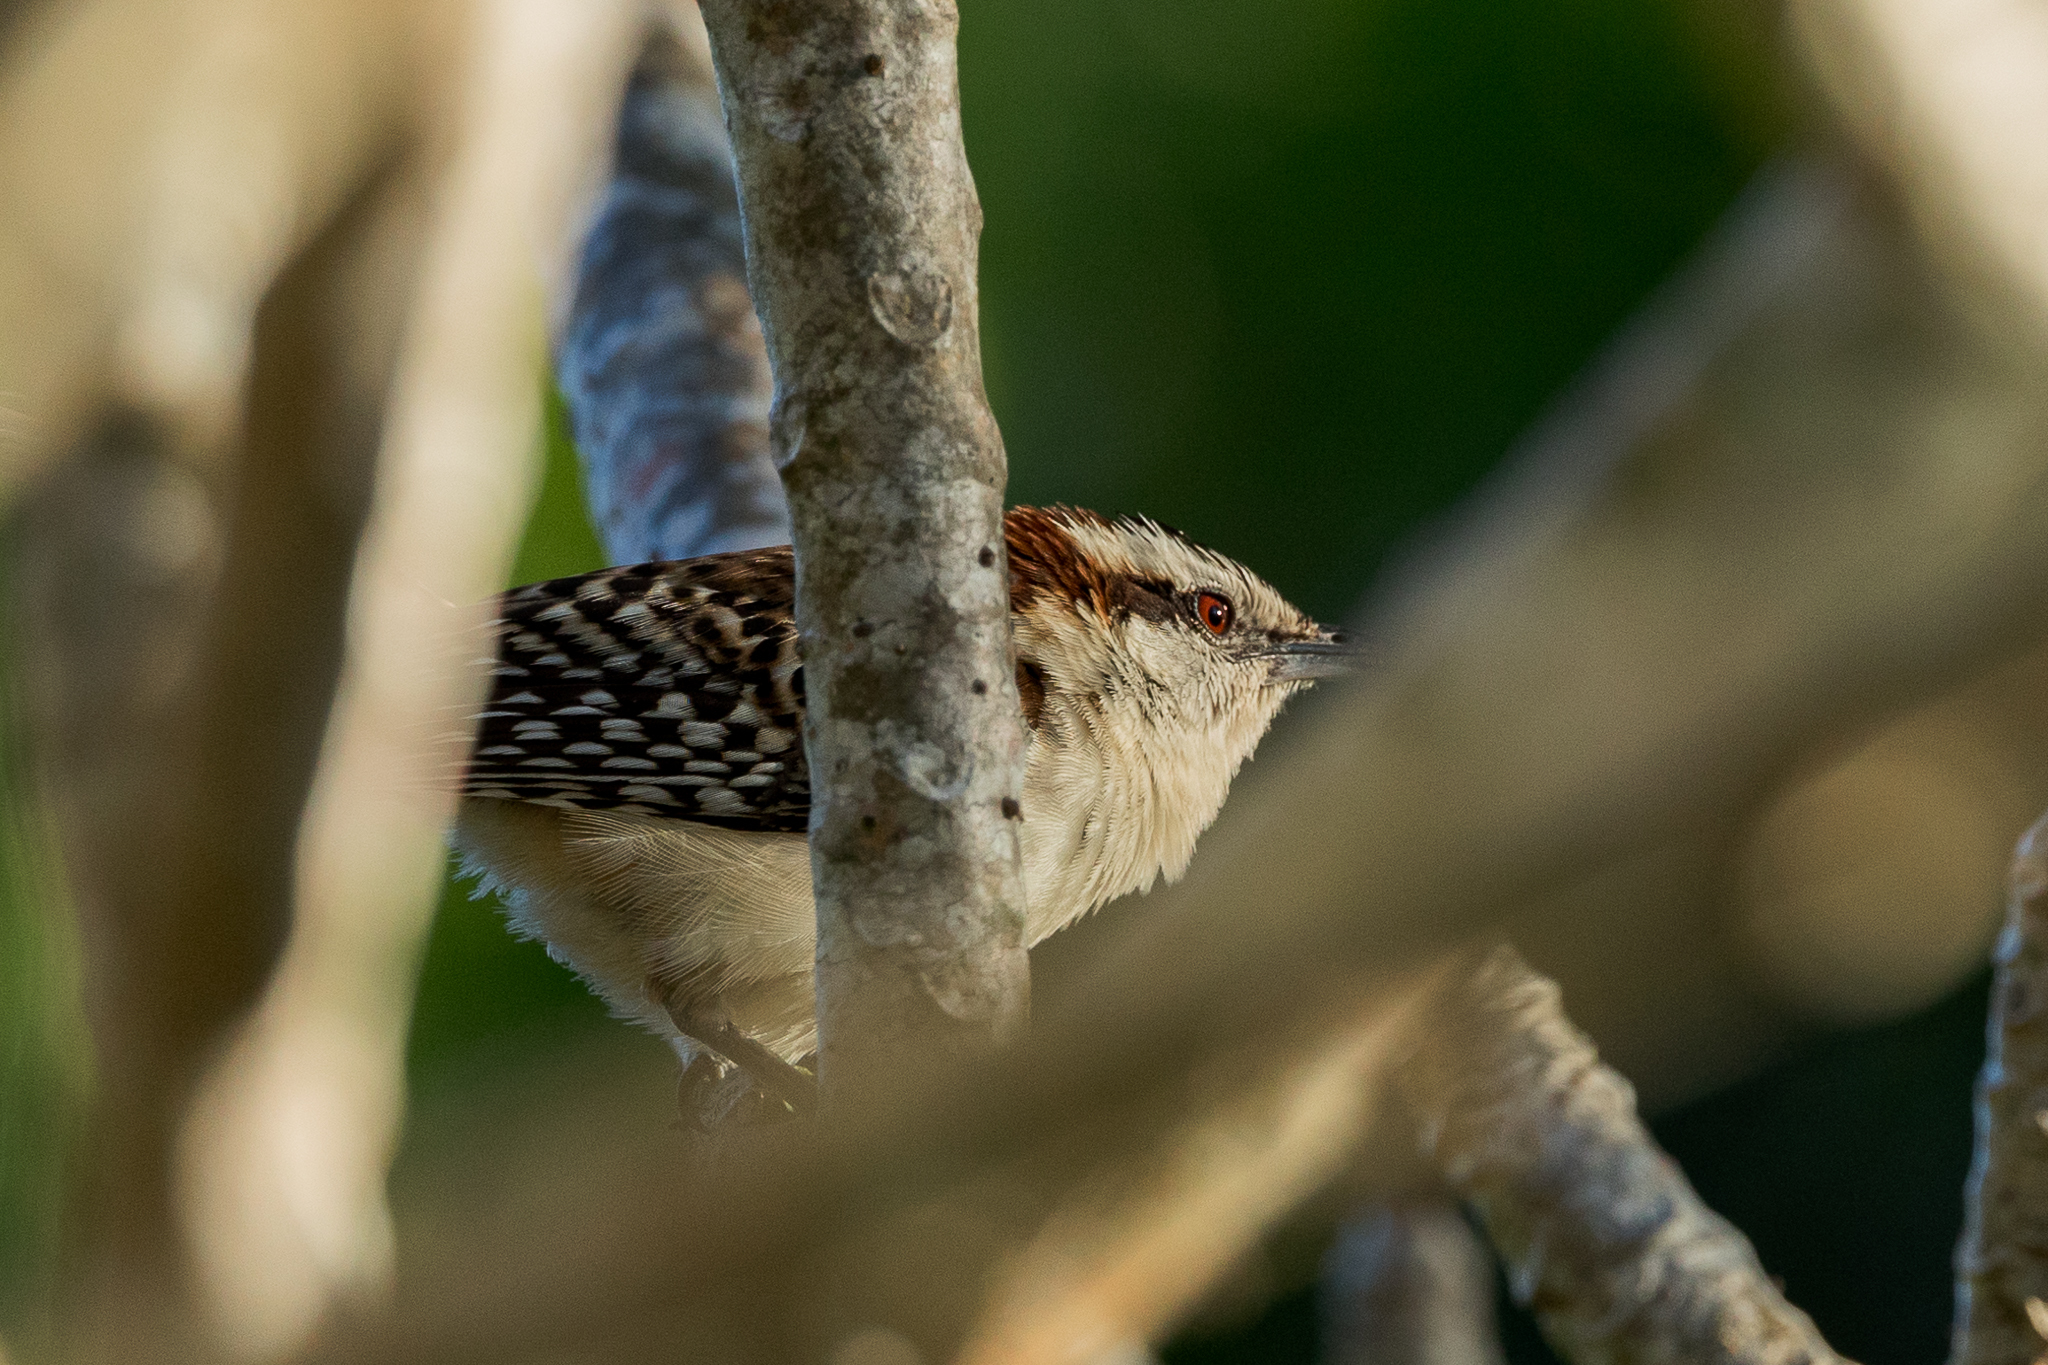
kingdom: Animalia
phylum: Chordata
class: Aves
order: Passeriformes
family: Troglodytidae
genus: Campylorhynchus
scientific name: Campylorhynchus rufinucha
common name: Rufous-naped wren
